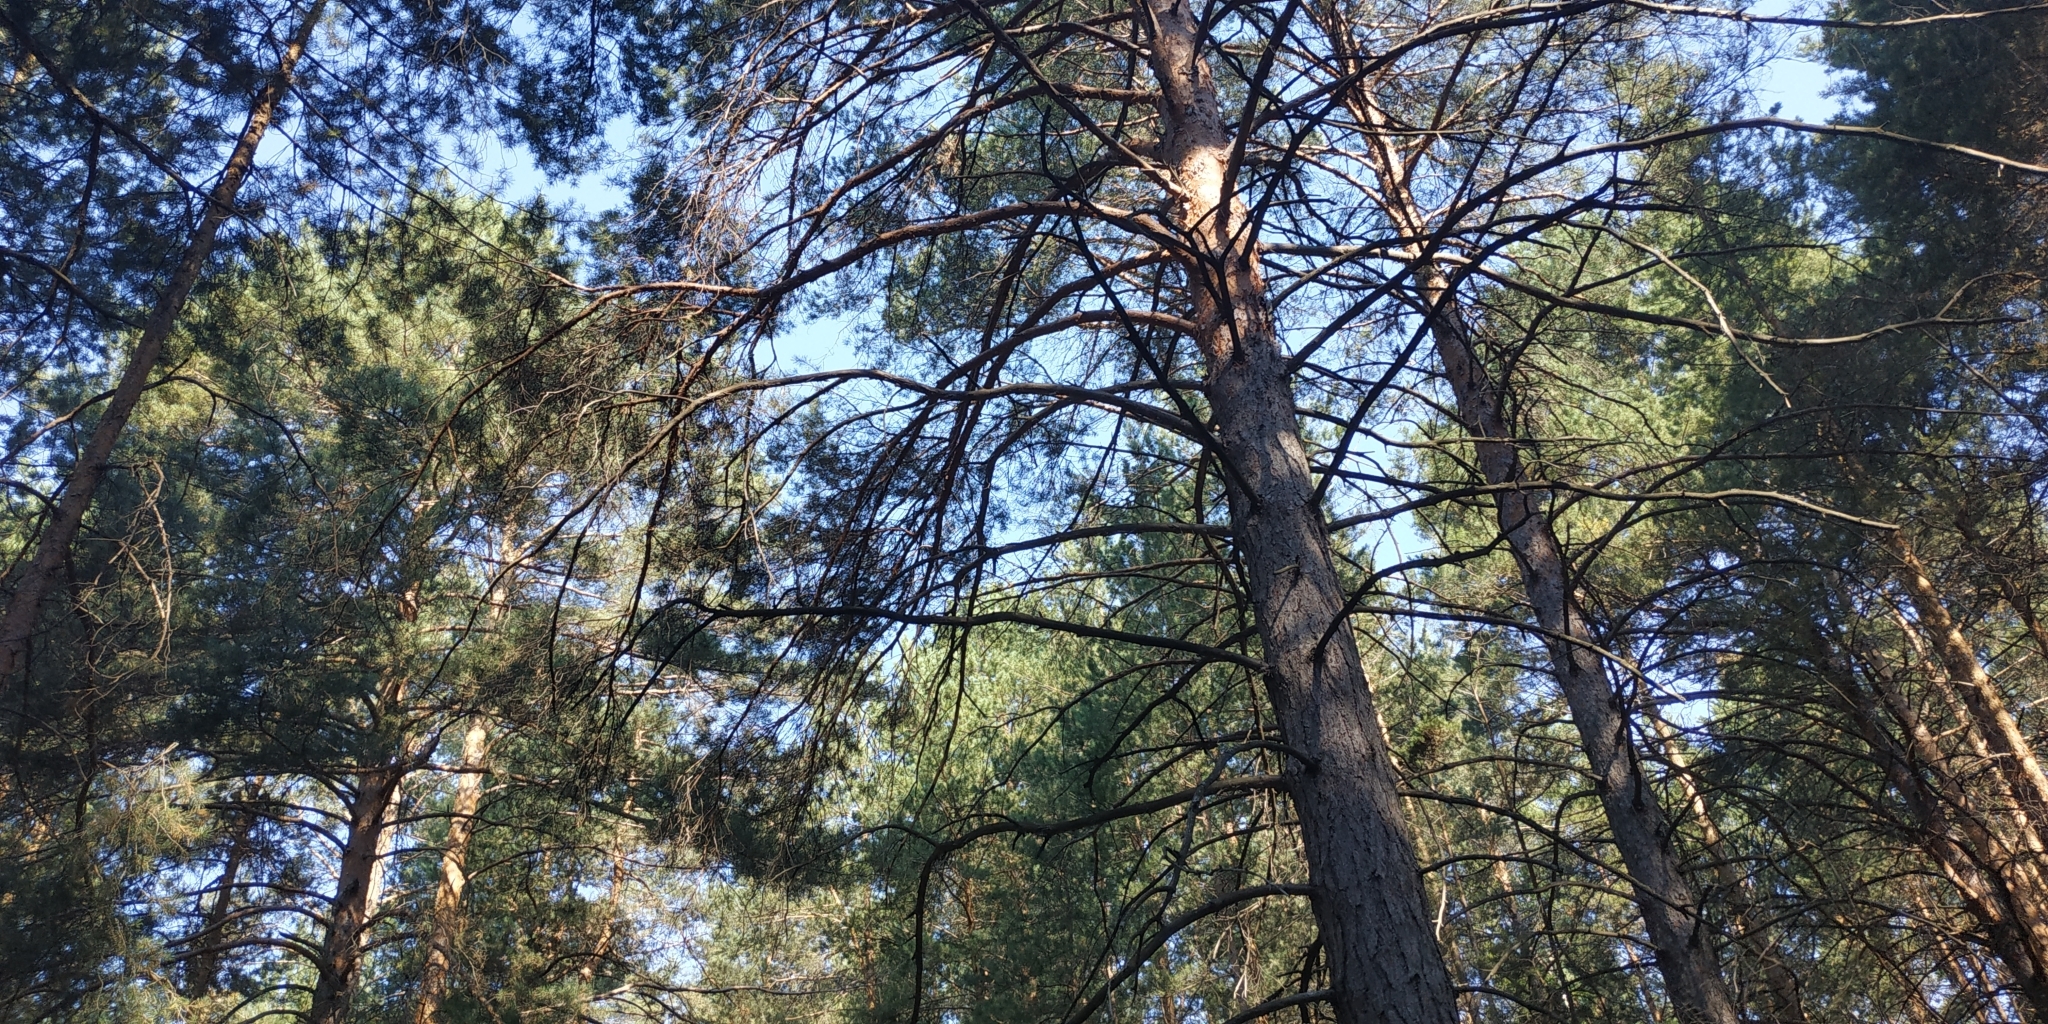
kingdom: Plantae
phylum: Tracheophyta
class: Pinopsida
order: Pinales
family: Pinaceae
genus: Pinus
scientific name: Pinus sylvestris
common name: Scots pine
